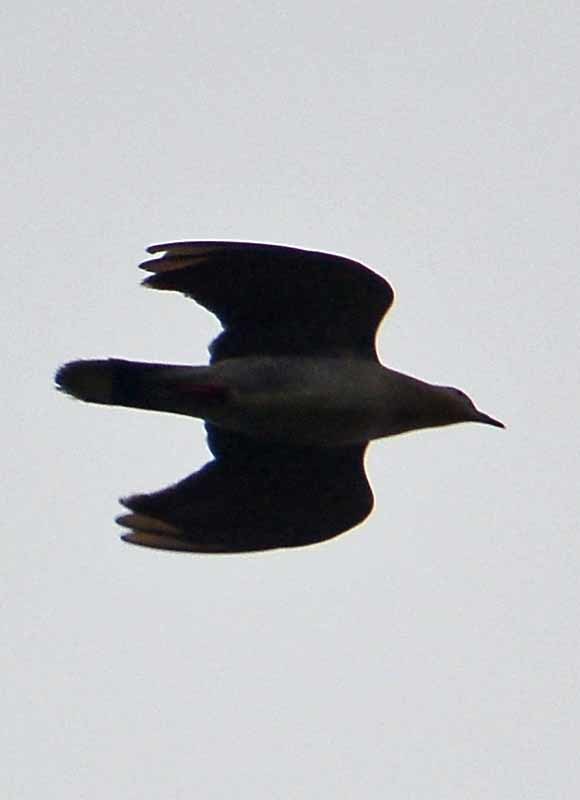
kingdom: Animalia
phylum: Chordata
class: Aves
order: Columbiformes
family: Columbidae
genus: Streptopelia
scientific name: Streptopelia decaocto
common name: Eurasian collared dove
